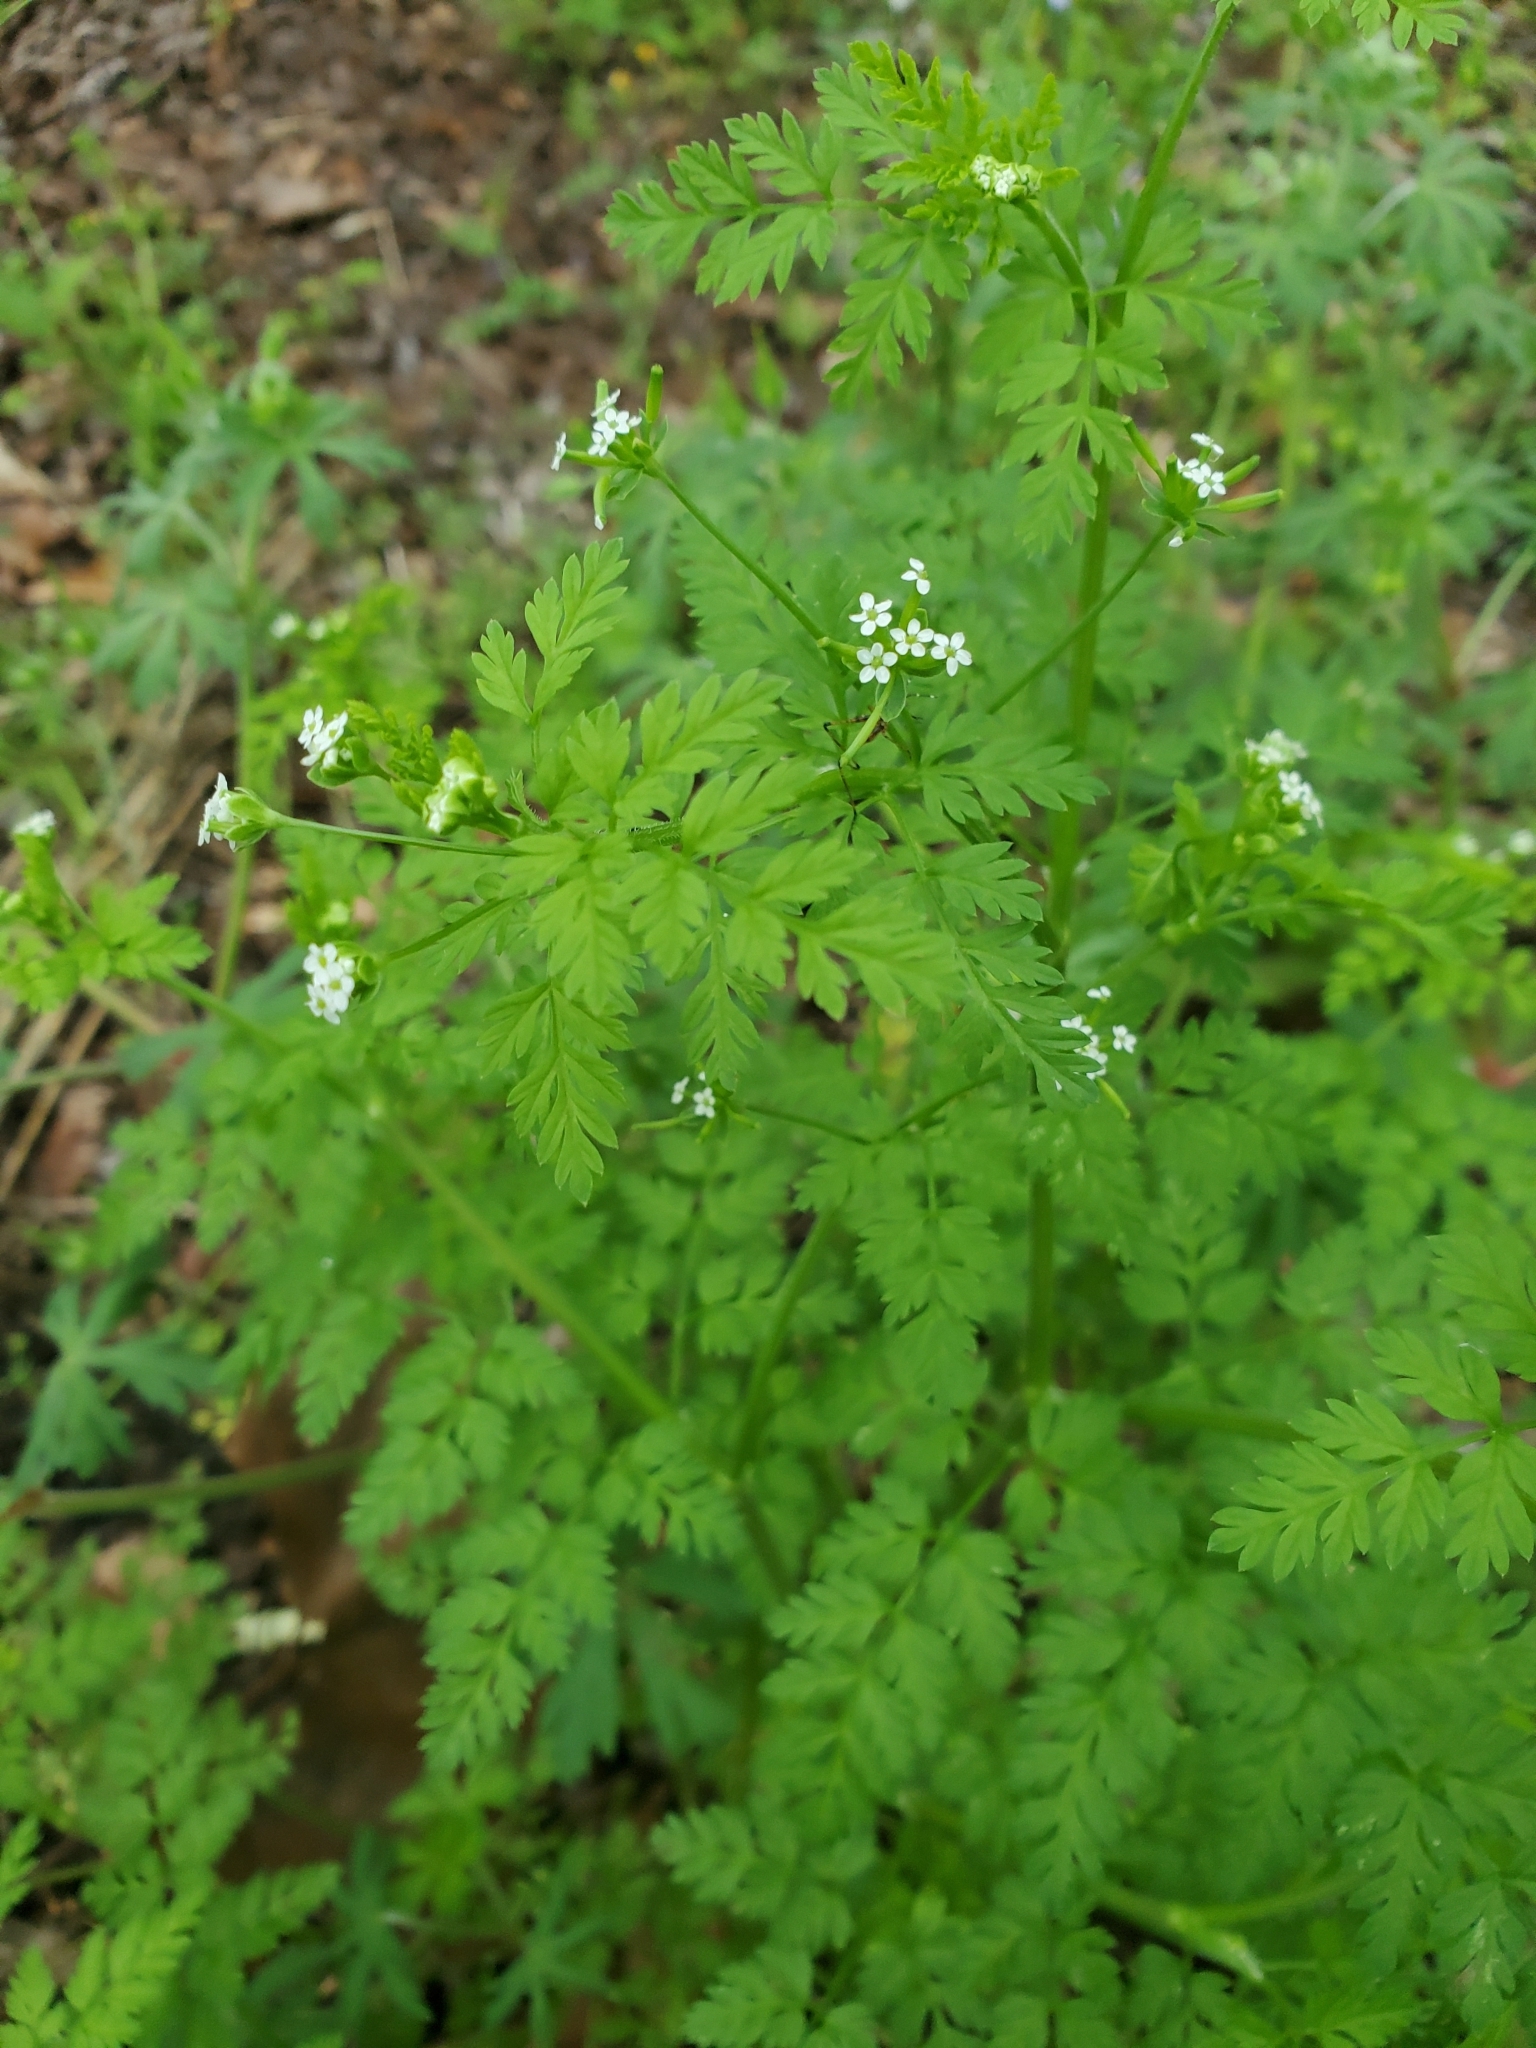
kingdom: Plantae
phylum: Tracheophyta
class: Magnoliopsida
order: Apiales
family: Apiaceae
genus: Chaerophyllum
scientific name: Chaerophyllum tainturieri
